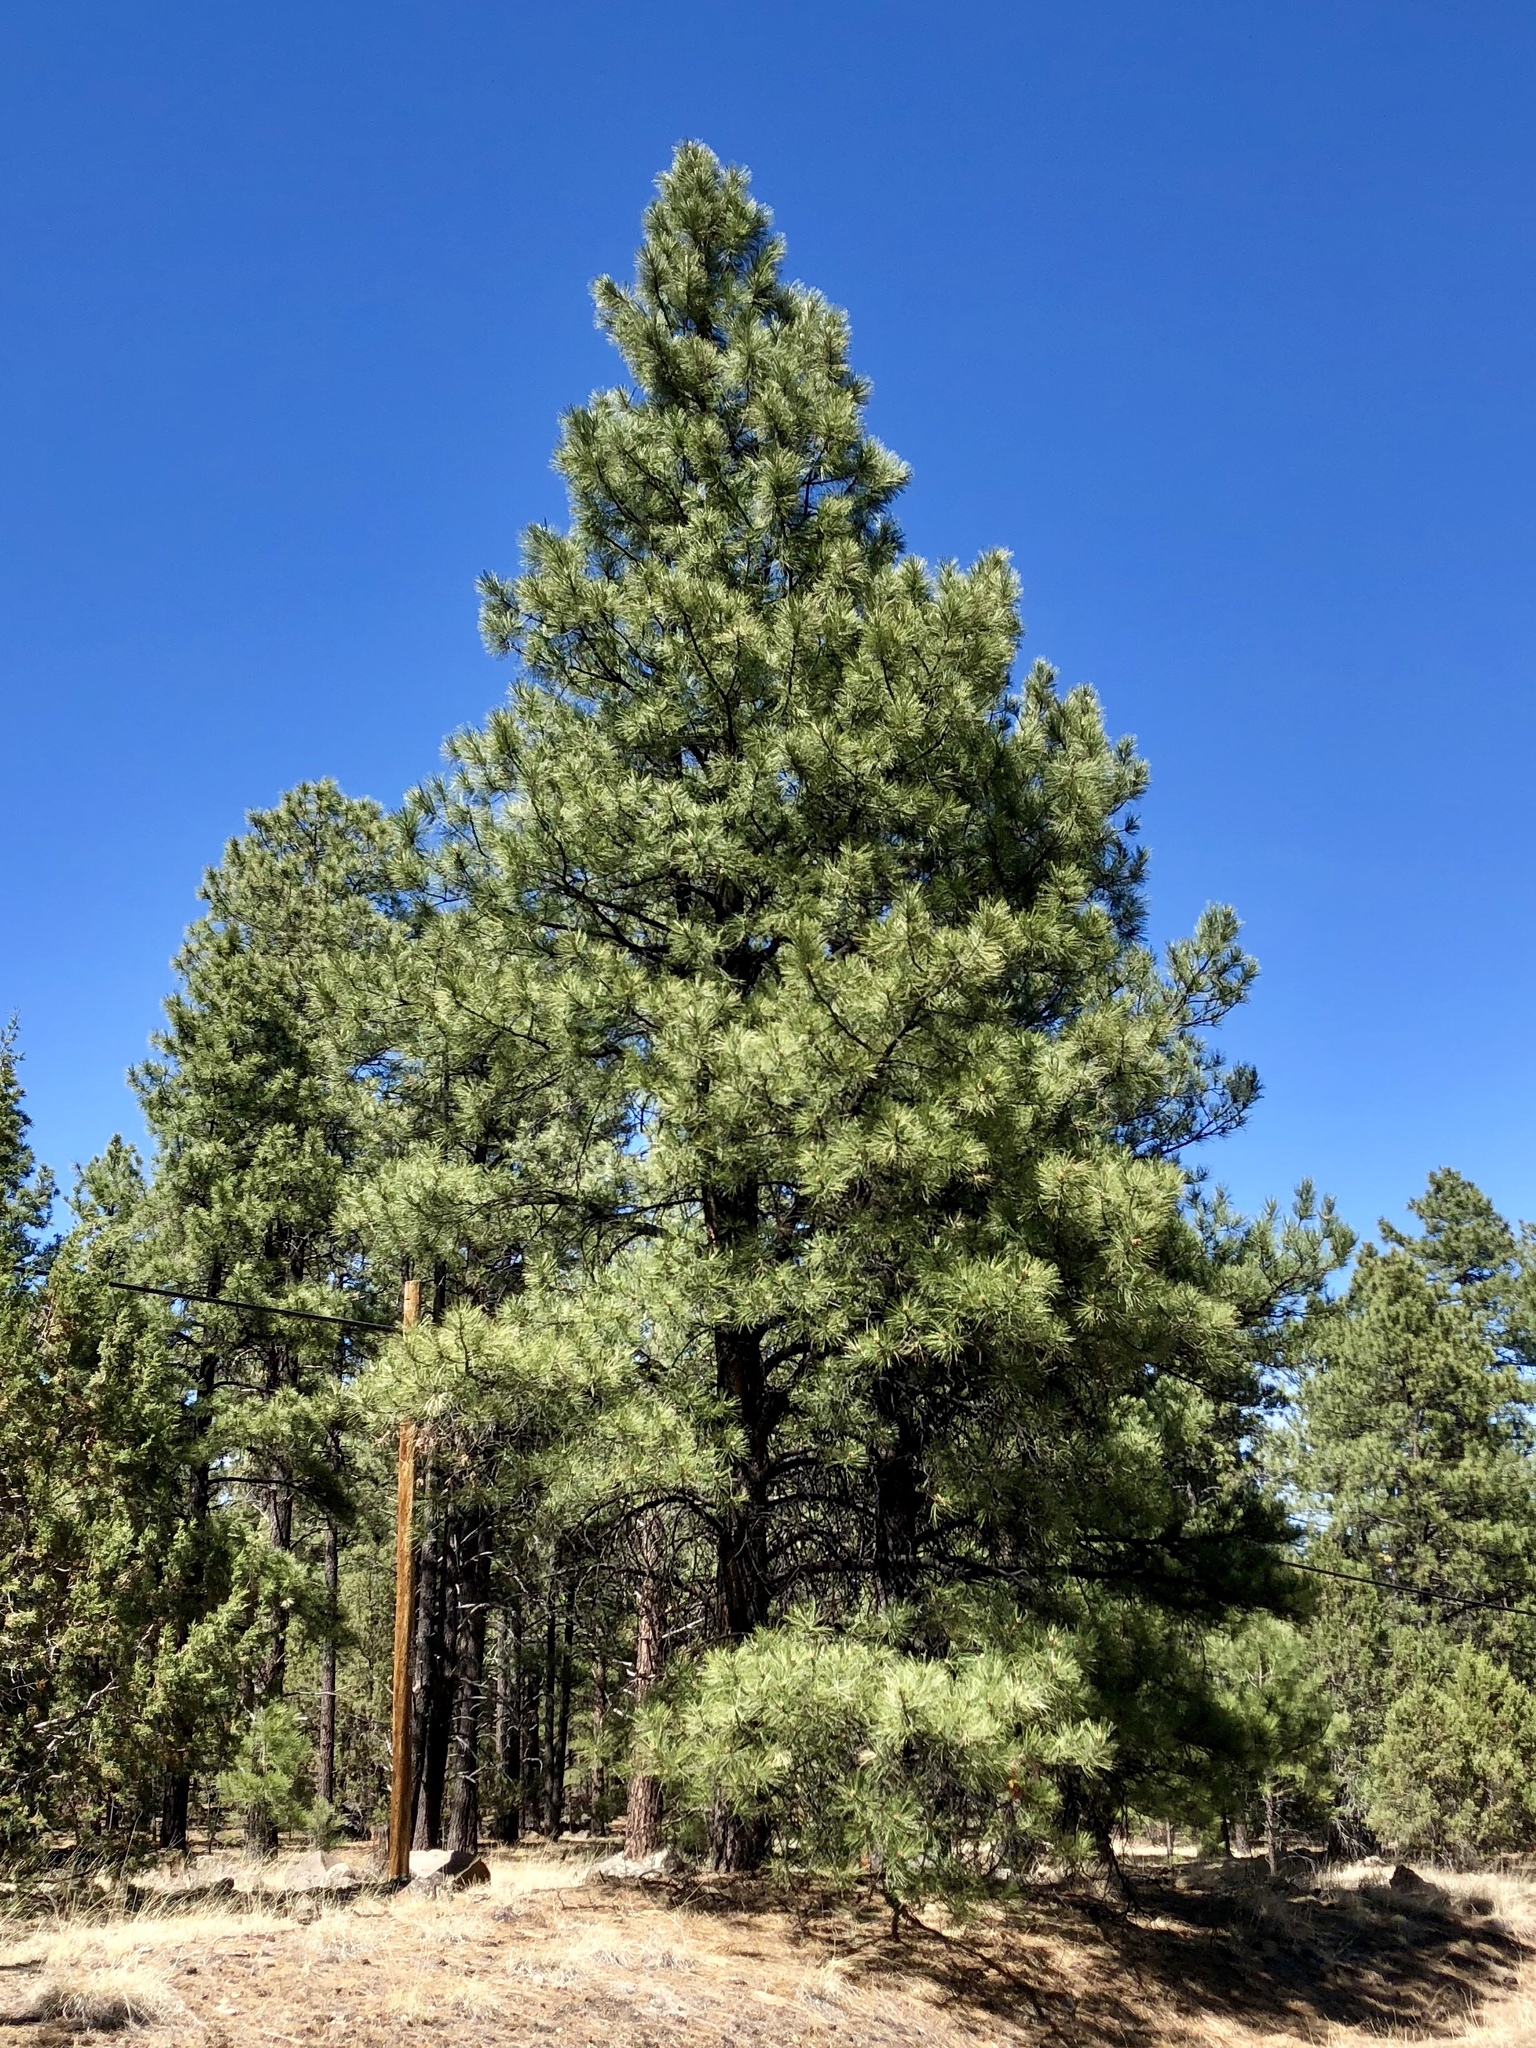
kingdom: Plantae
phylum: Tracheophyta
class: Pinopsida
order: Pinales
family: Pinaceae
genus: Pinus
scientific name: Pinus ponderosa
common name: Western yellow-pine
